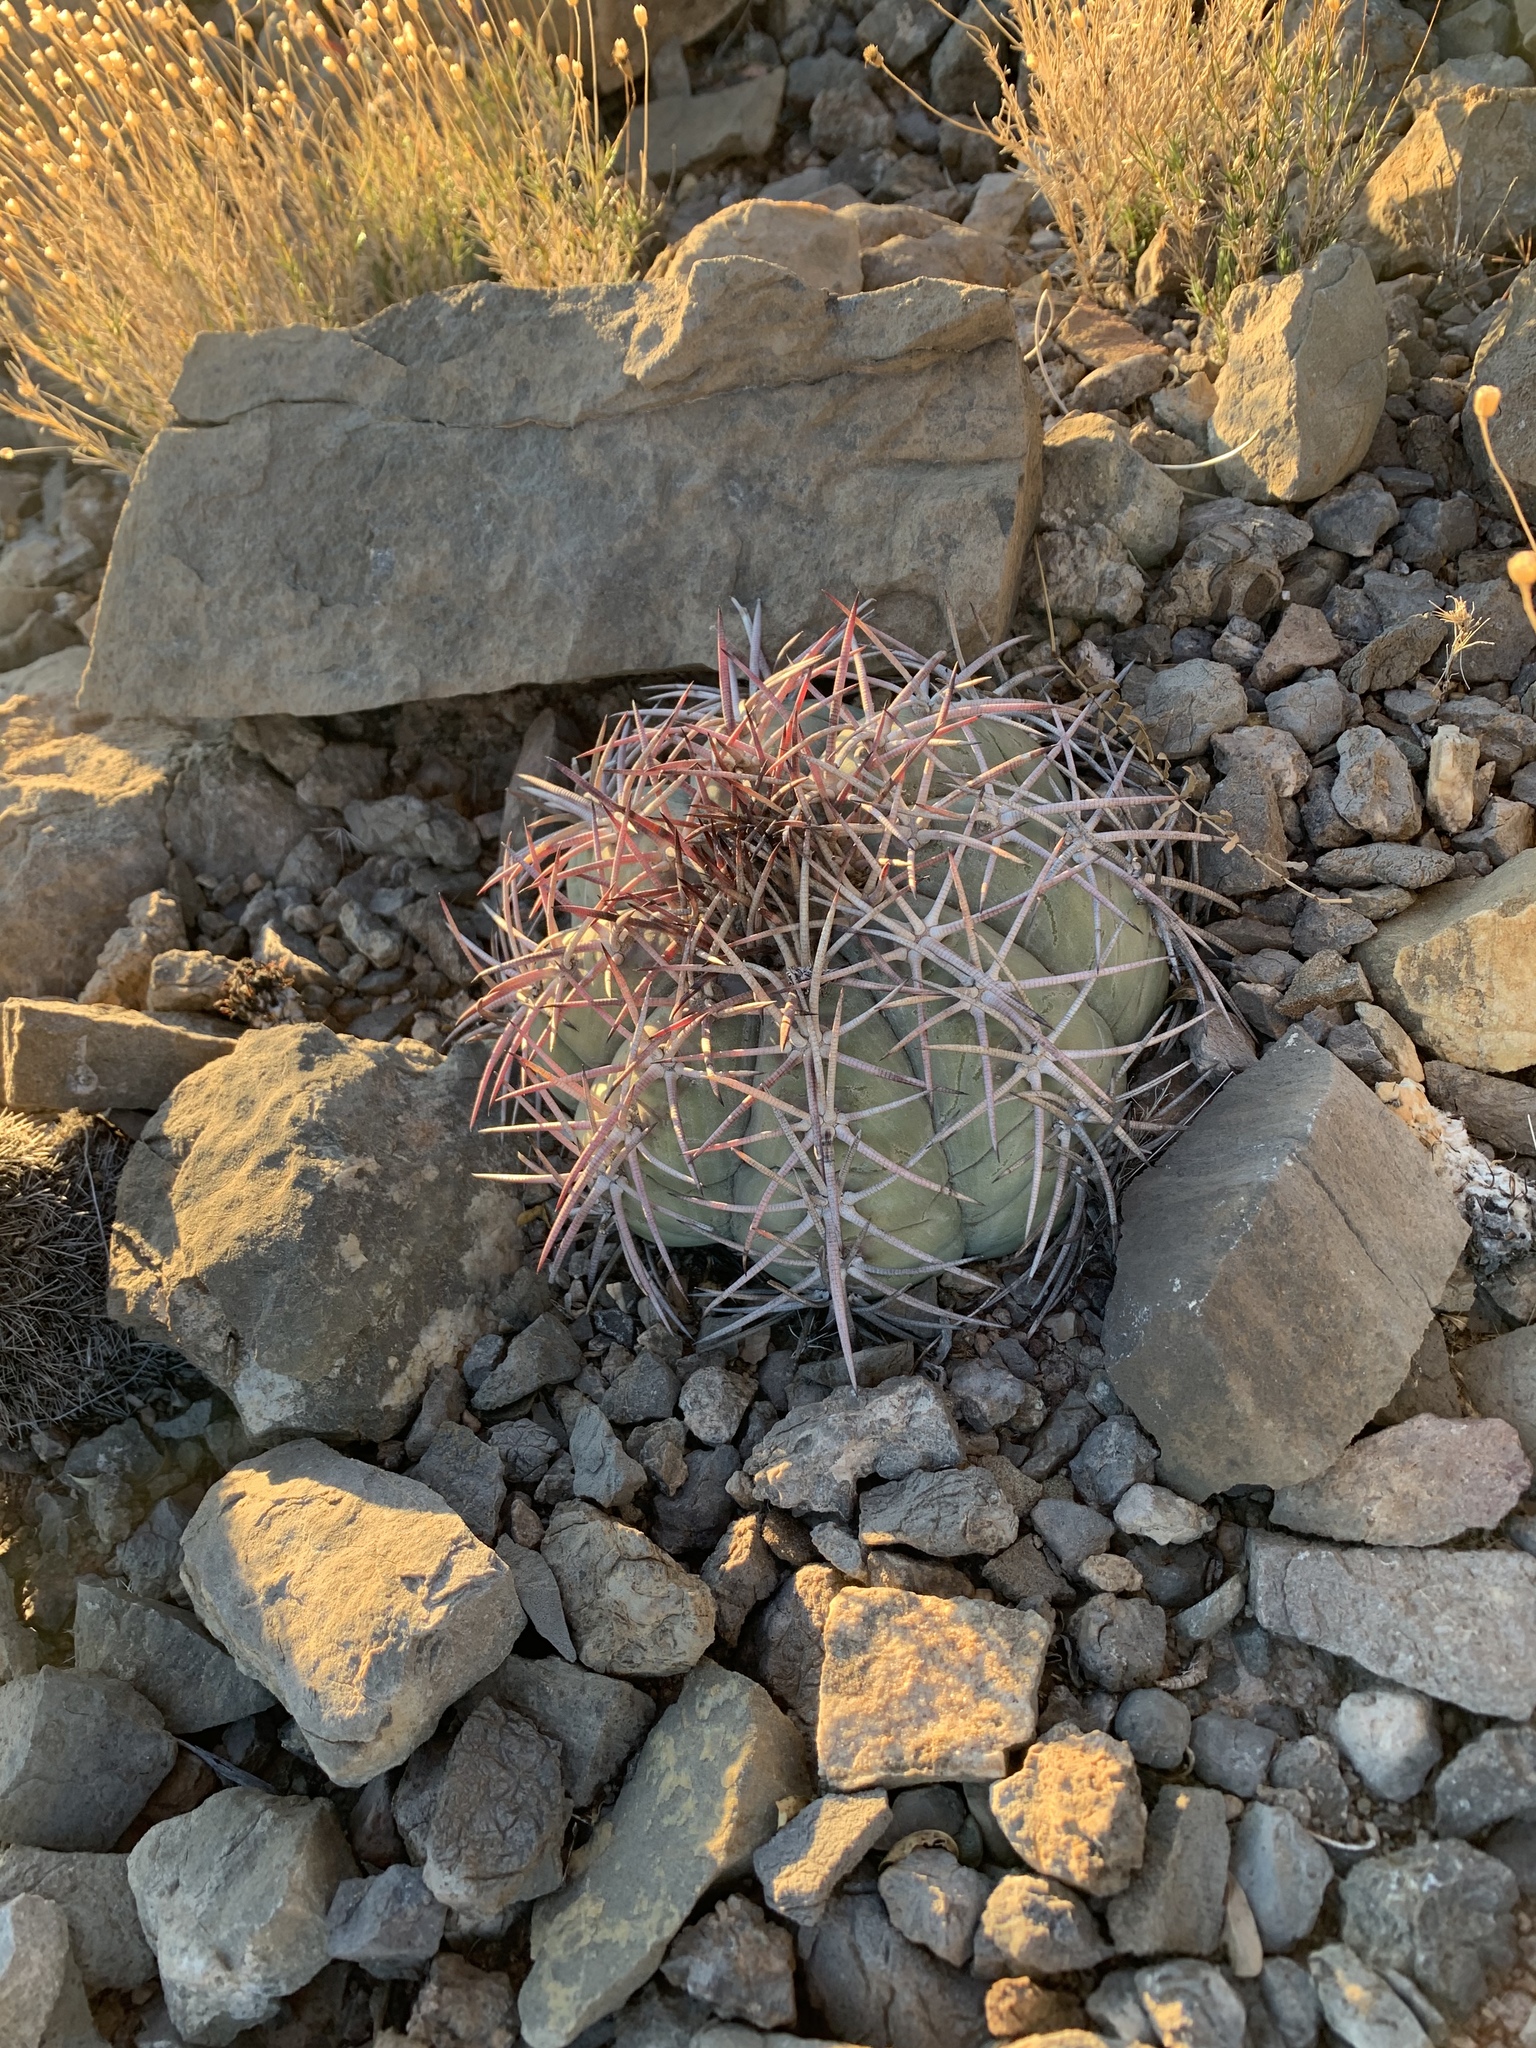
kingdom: Plantae
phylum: Tracheophyta
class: Magnoliopsida
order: Caryophyllales
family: Cactaceae
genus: Echinocactus
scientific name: Echinocactus horizonthalonius
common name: Devilshead
